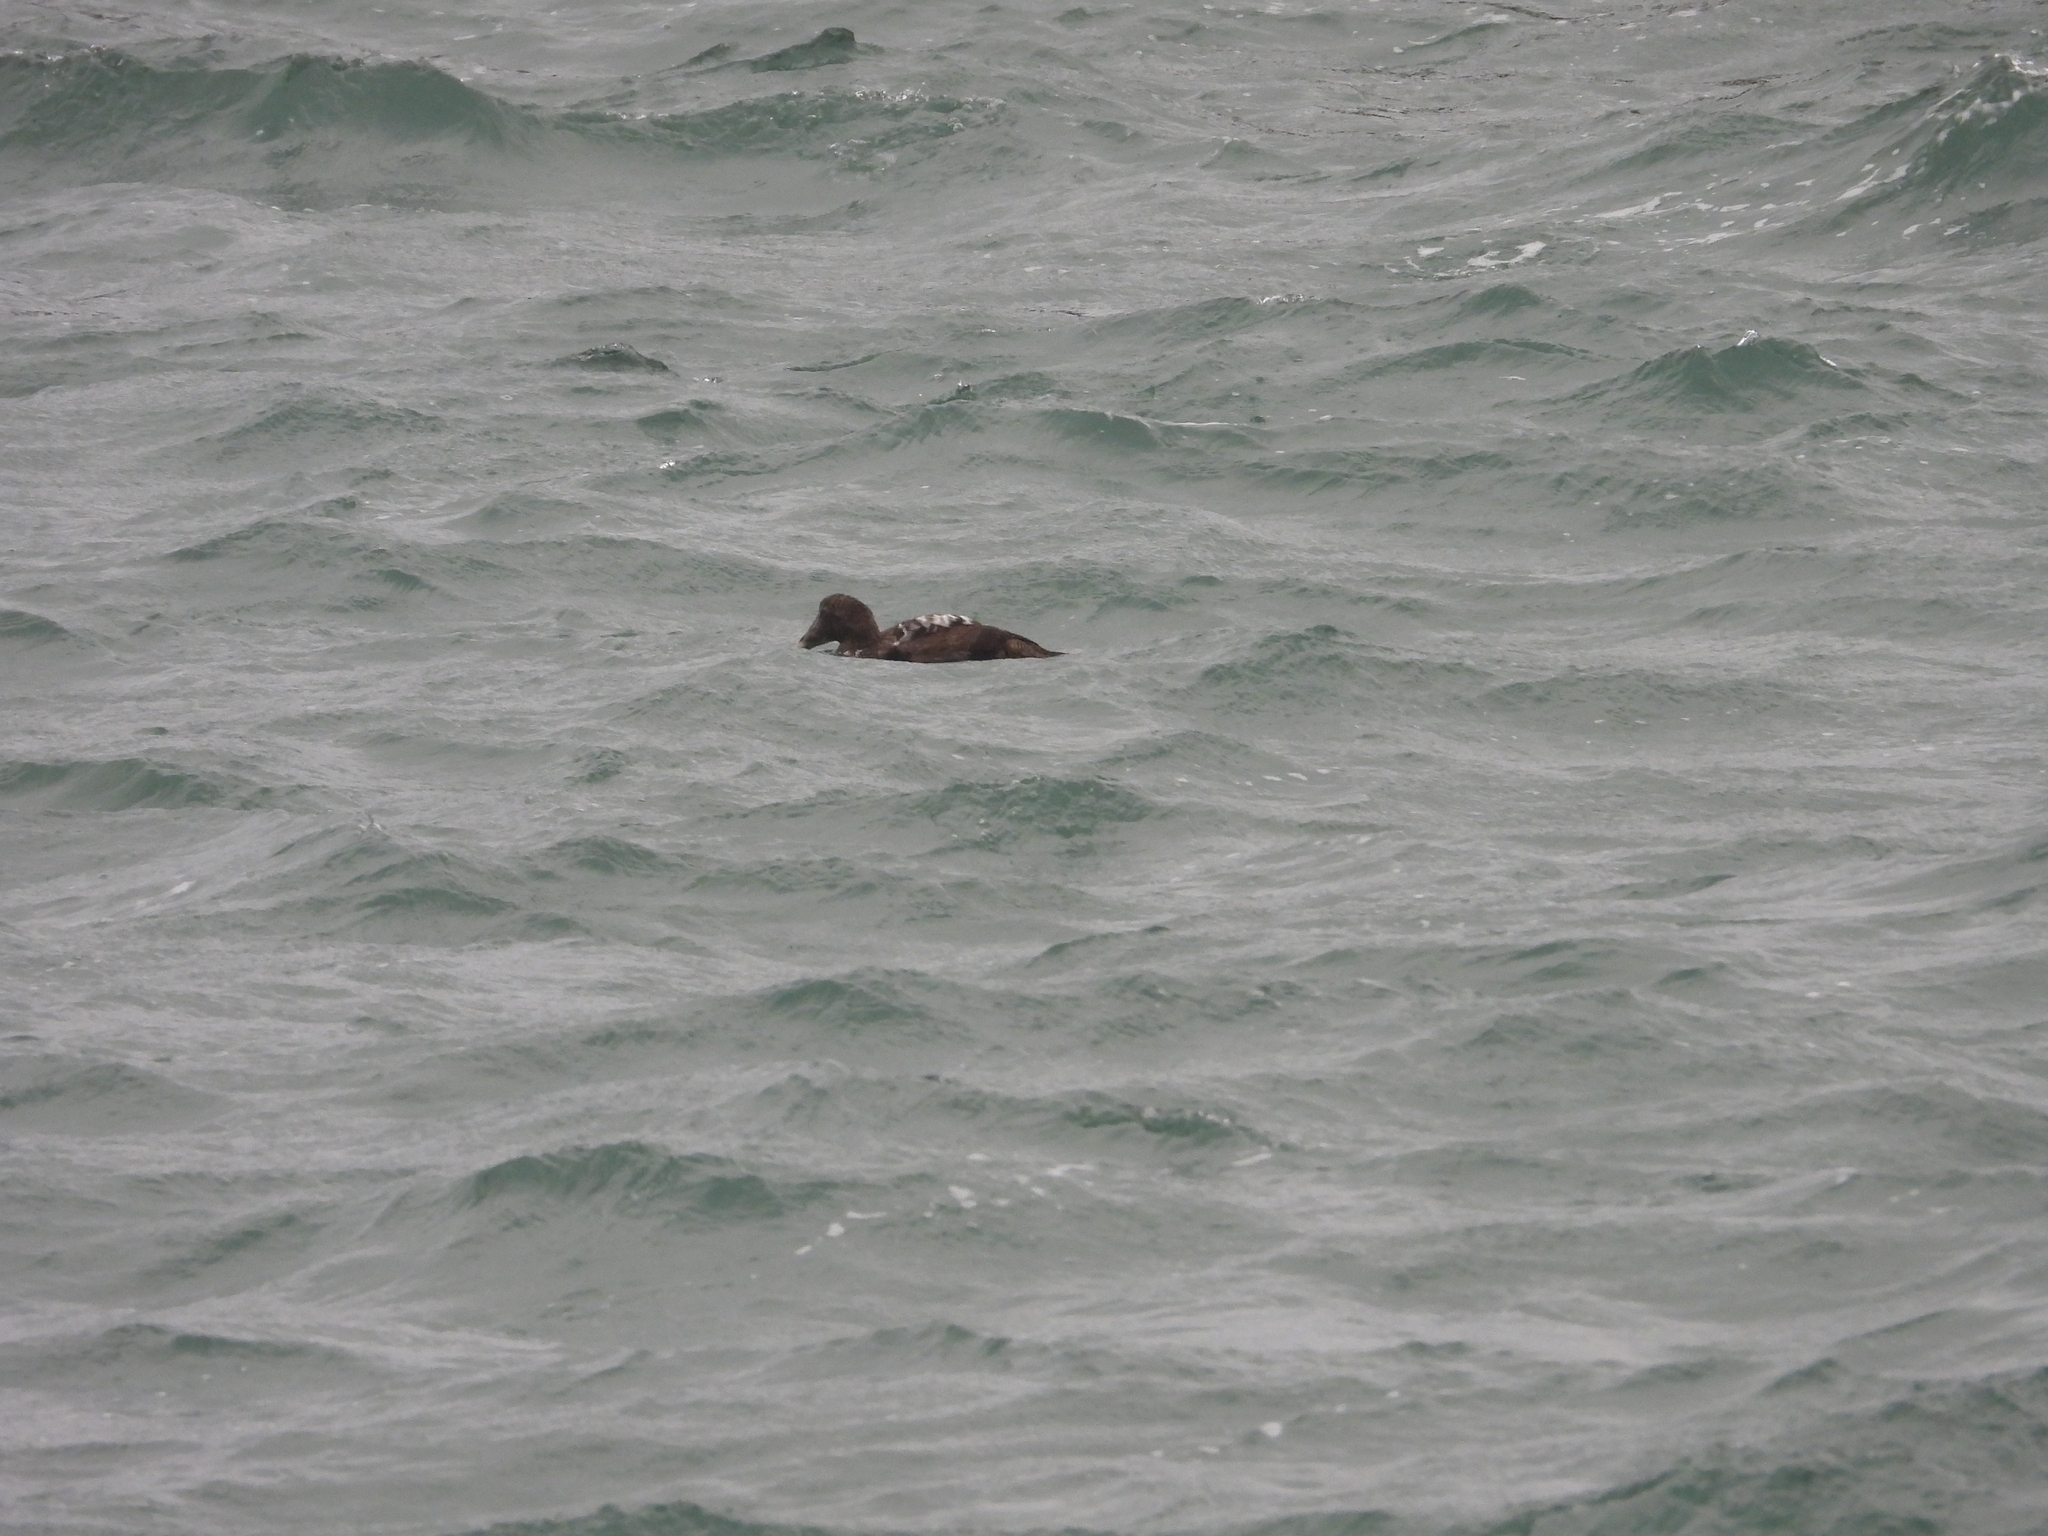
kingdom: Animalia
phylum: Chordata
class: Aves
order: Anseriformes
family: Anatidae
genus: Somateria
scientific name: Somateria mollissima
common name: Common eider
